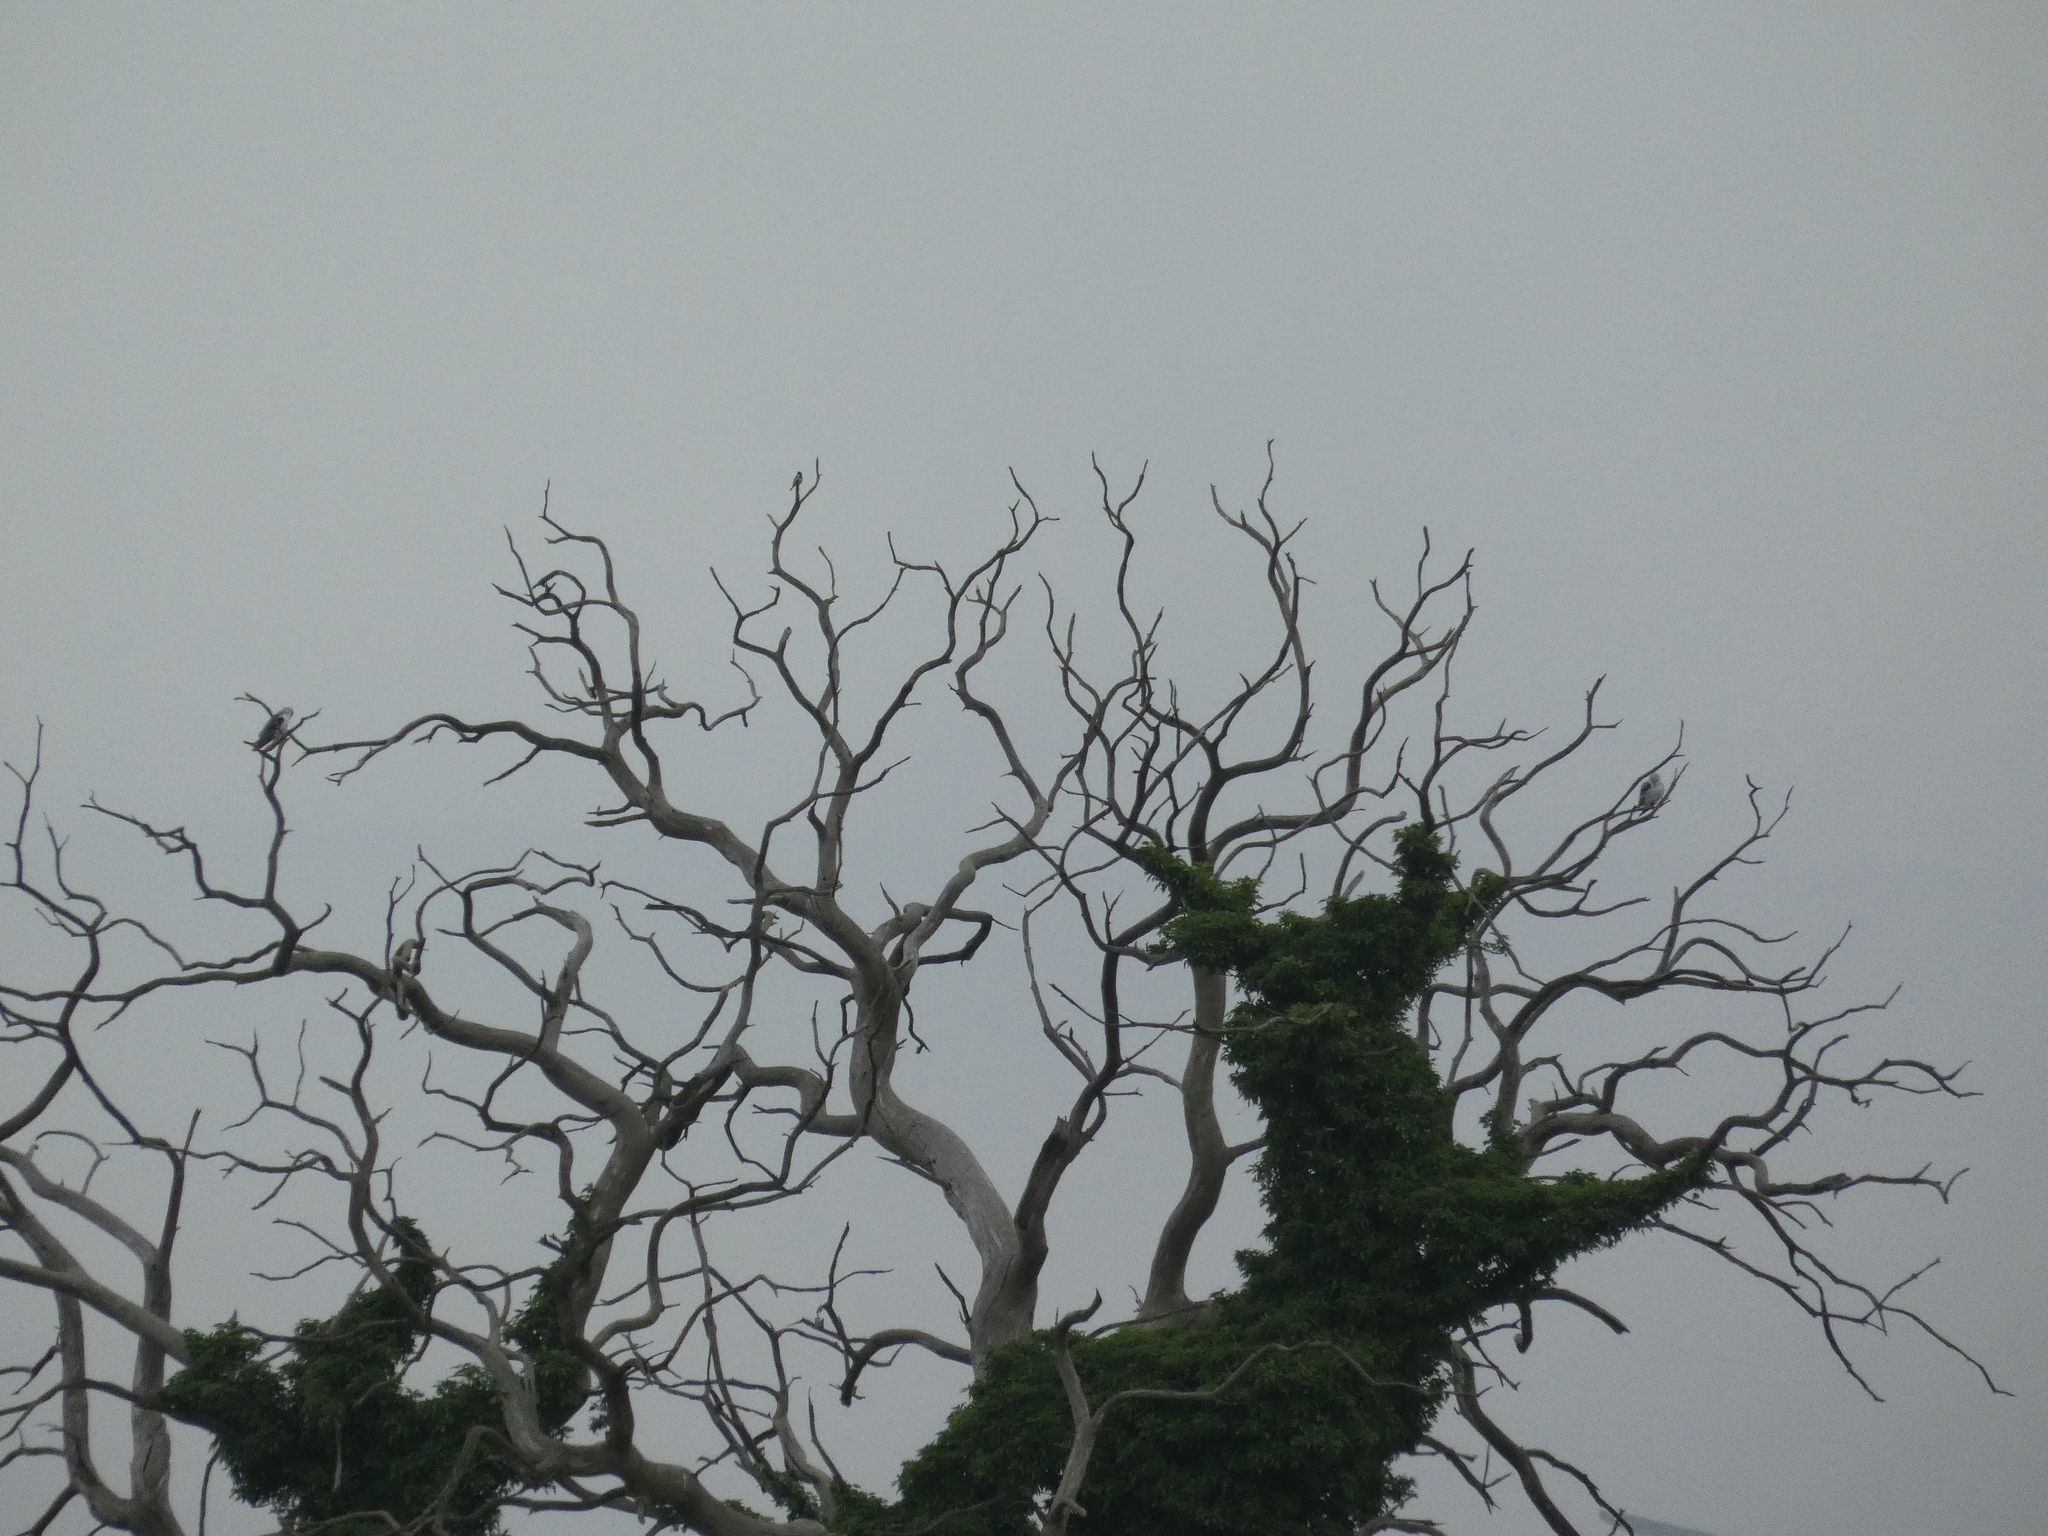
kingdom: Animalia
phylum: Chordata
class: Aves
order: Accipitriformes
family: Accipitridae
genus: Elanus
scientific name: Elanus caeruleus
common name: Black-winged kite
